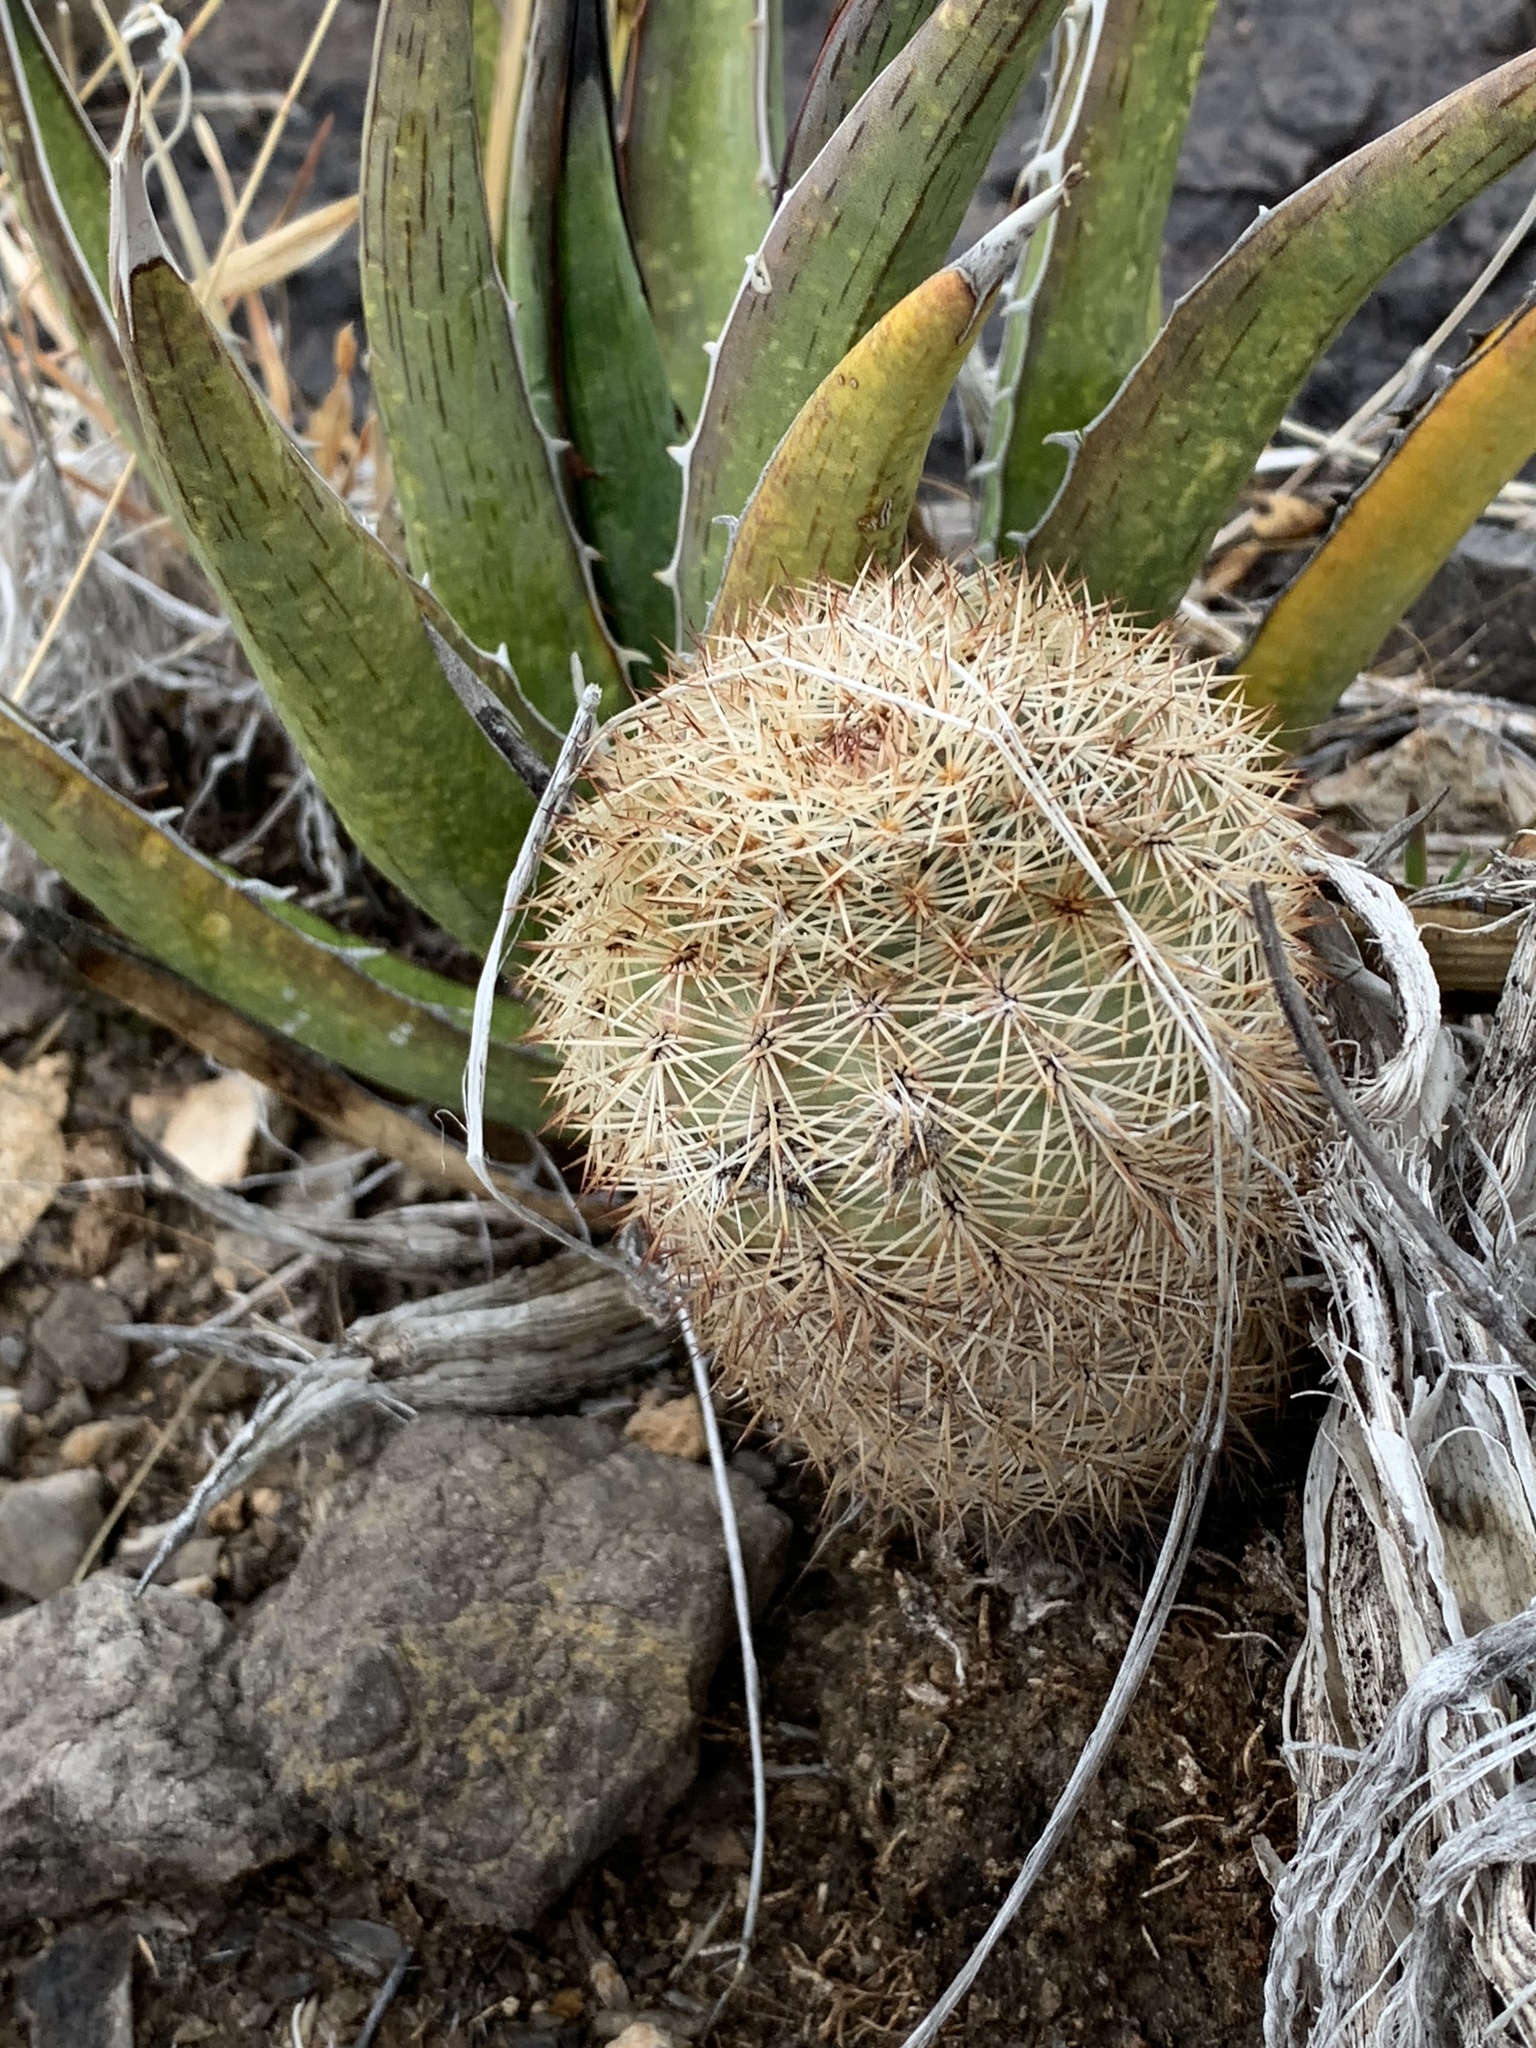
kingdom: Plantae
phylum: Tracheophyta
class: Magnoliopsida
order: Caryophyllales
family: Cactaceae
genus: Echinocereus
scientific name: Echinocereus dasyacanthus
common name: Spiny hedgehog cactus
